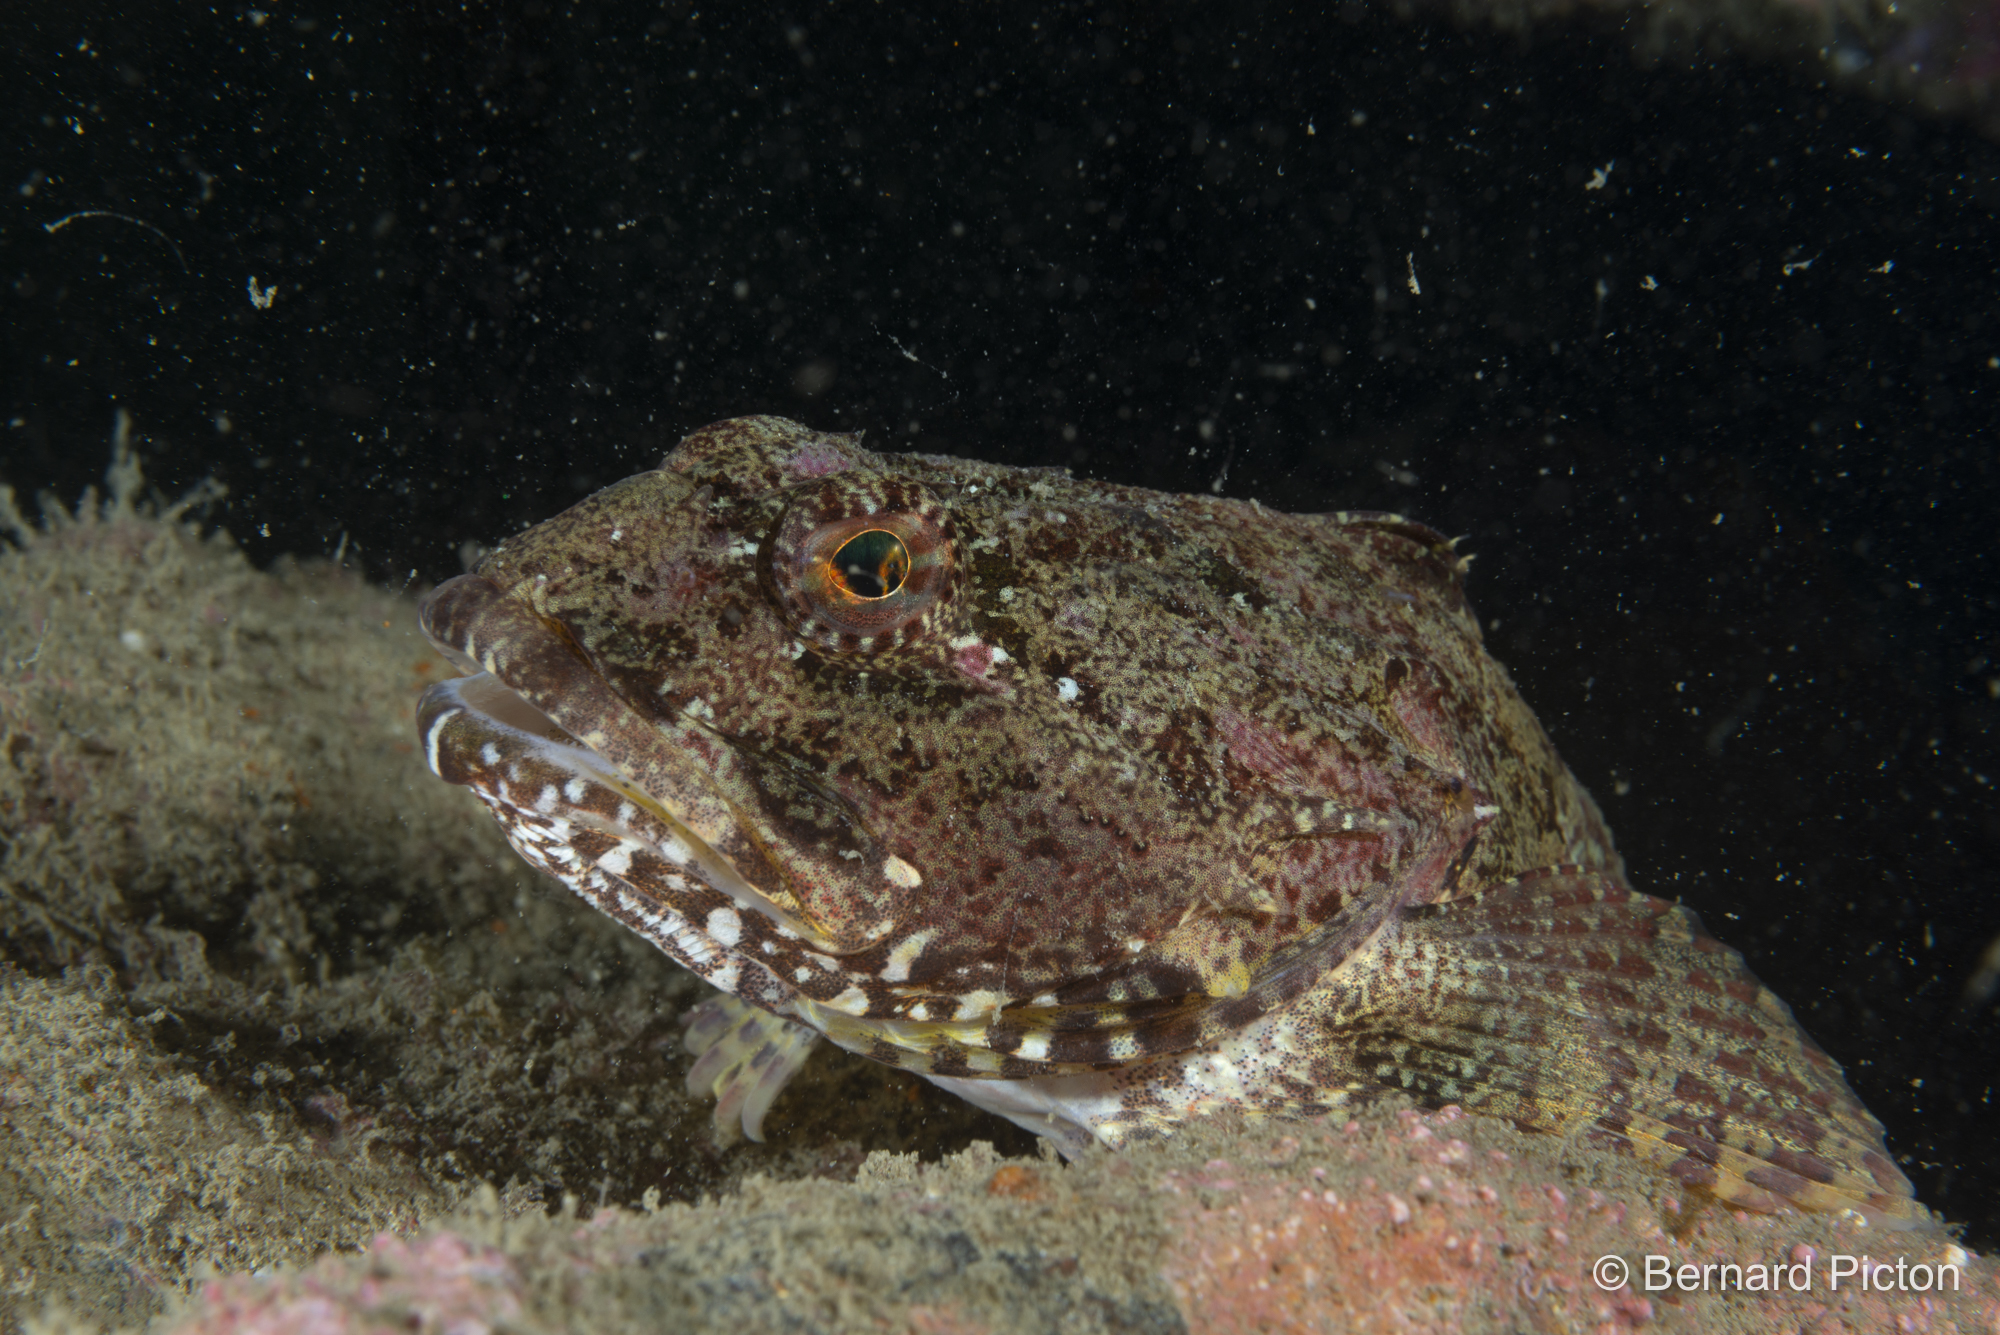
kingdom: Animalia
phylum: Chordata
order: Scorpaeniformes
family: Cottidae
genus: Myoxocephalus
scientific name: Myoxocephalus scorpius
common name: Shorthorn sculpin
